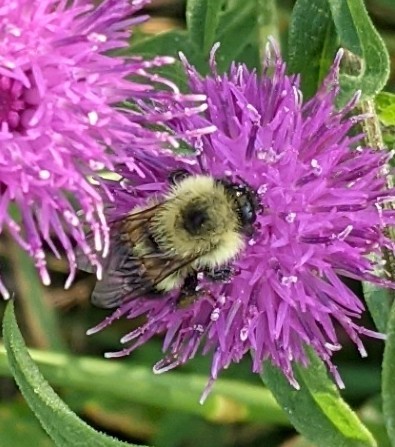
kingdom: Animalia
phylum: Arthropoda
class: Insecta
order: Hymenoptera
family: Apidae
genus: Pyrobombus
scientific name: Pyrobombus
